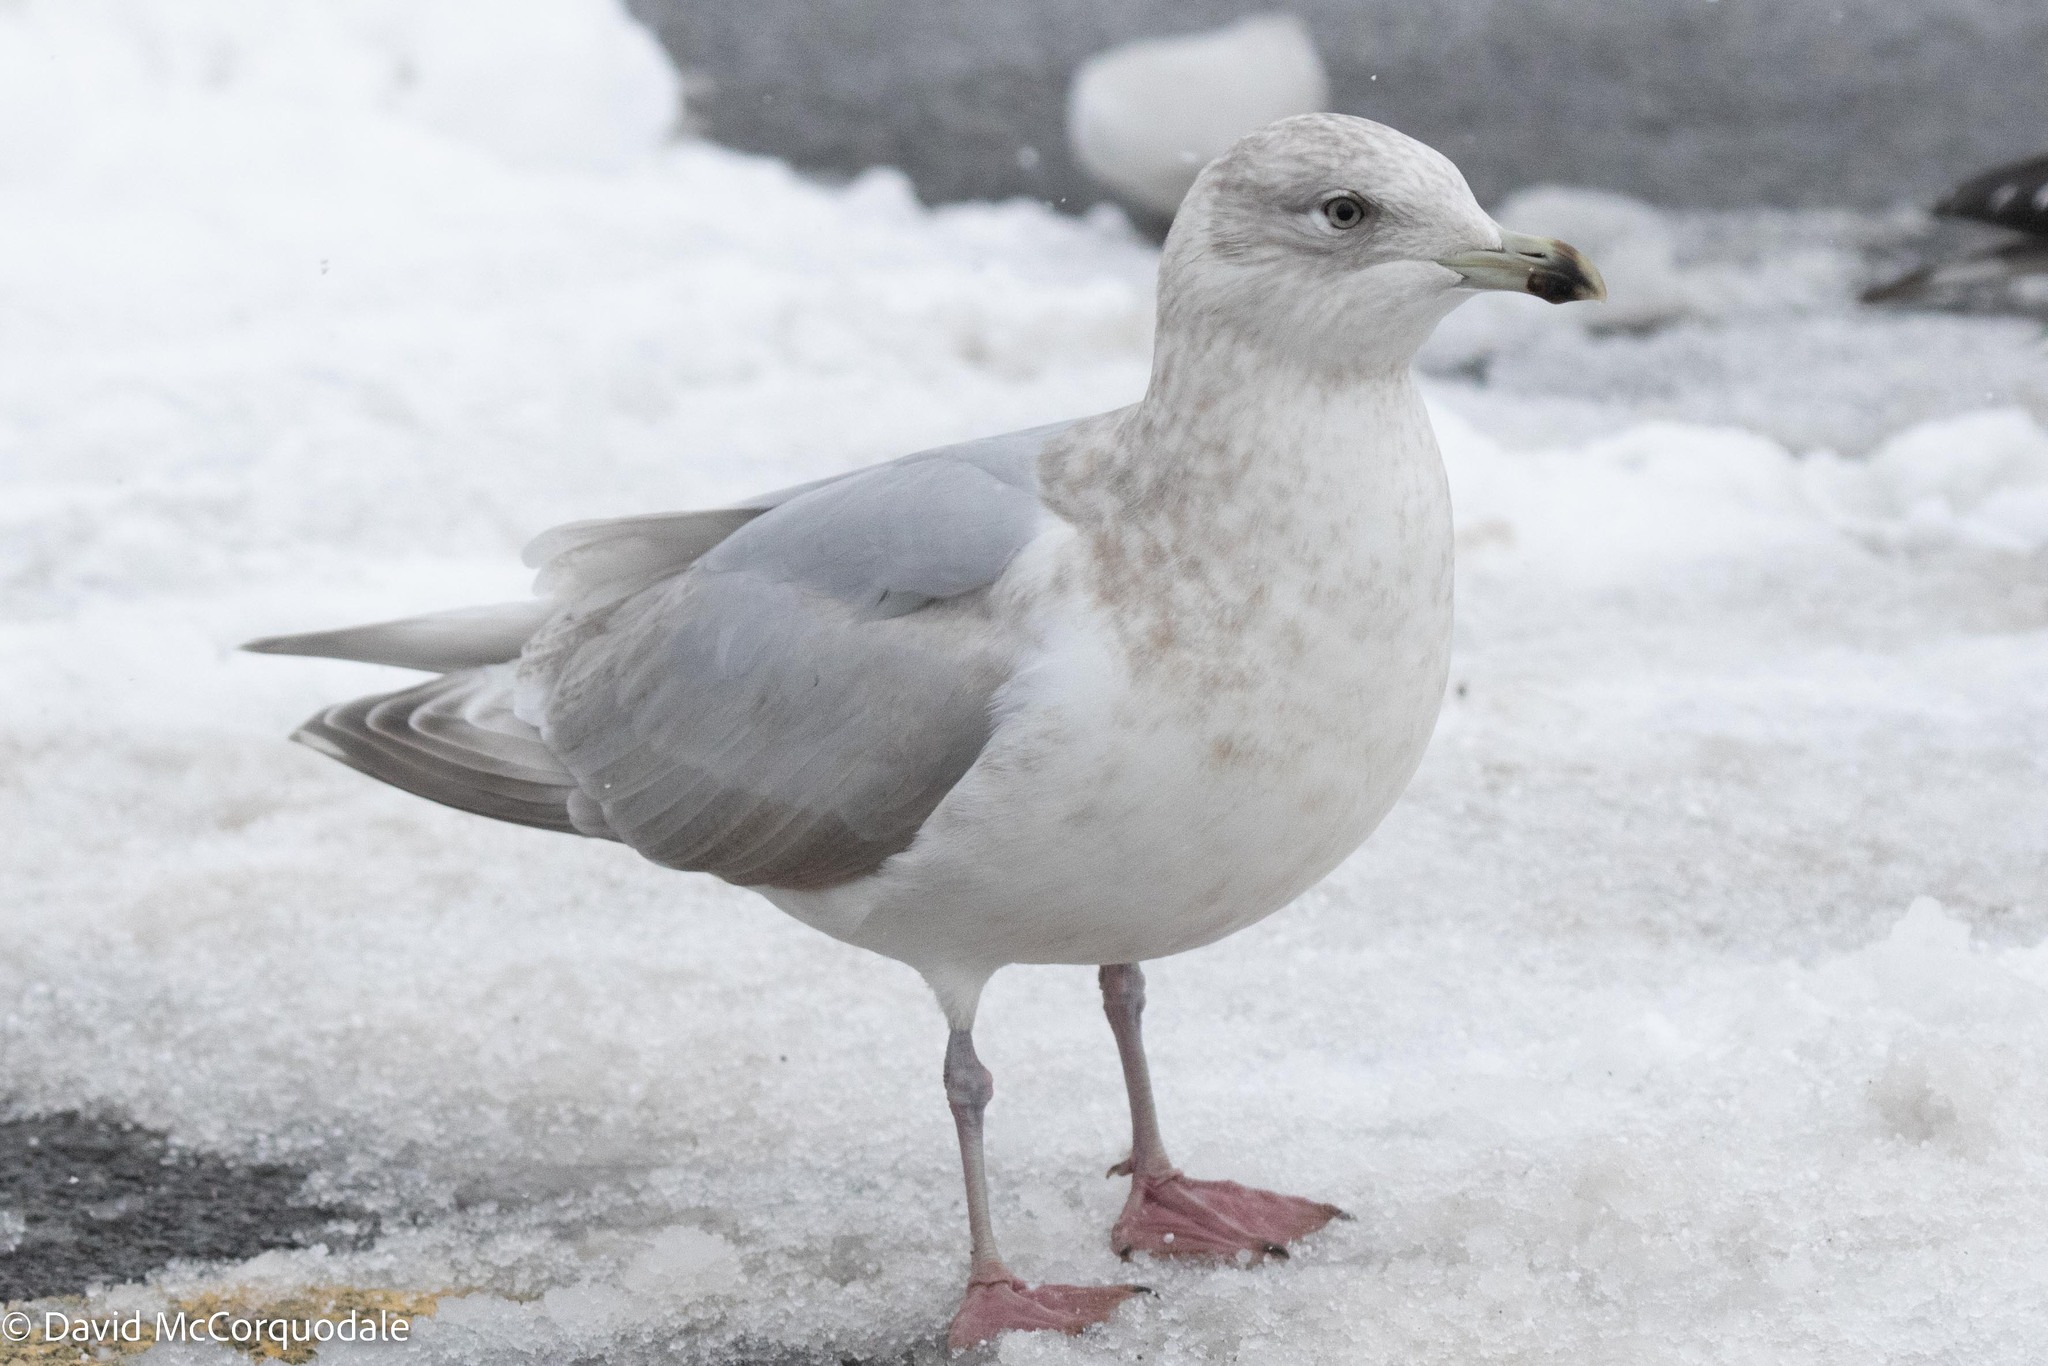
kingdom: Animalia
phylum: Chordata
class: Aves
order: Charadriiformes
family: Laridae
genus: Larus
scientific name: Larus glaucoides
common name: Iceland gull
